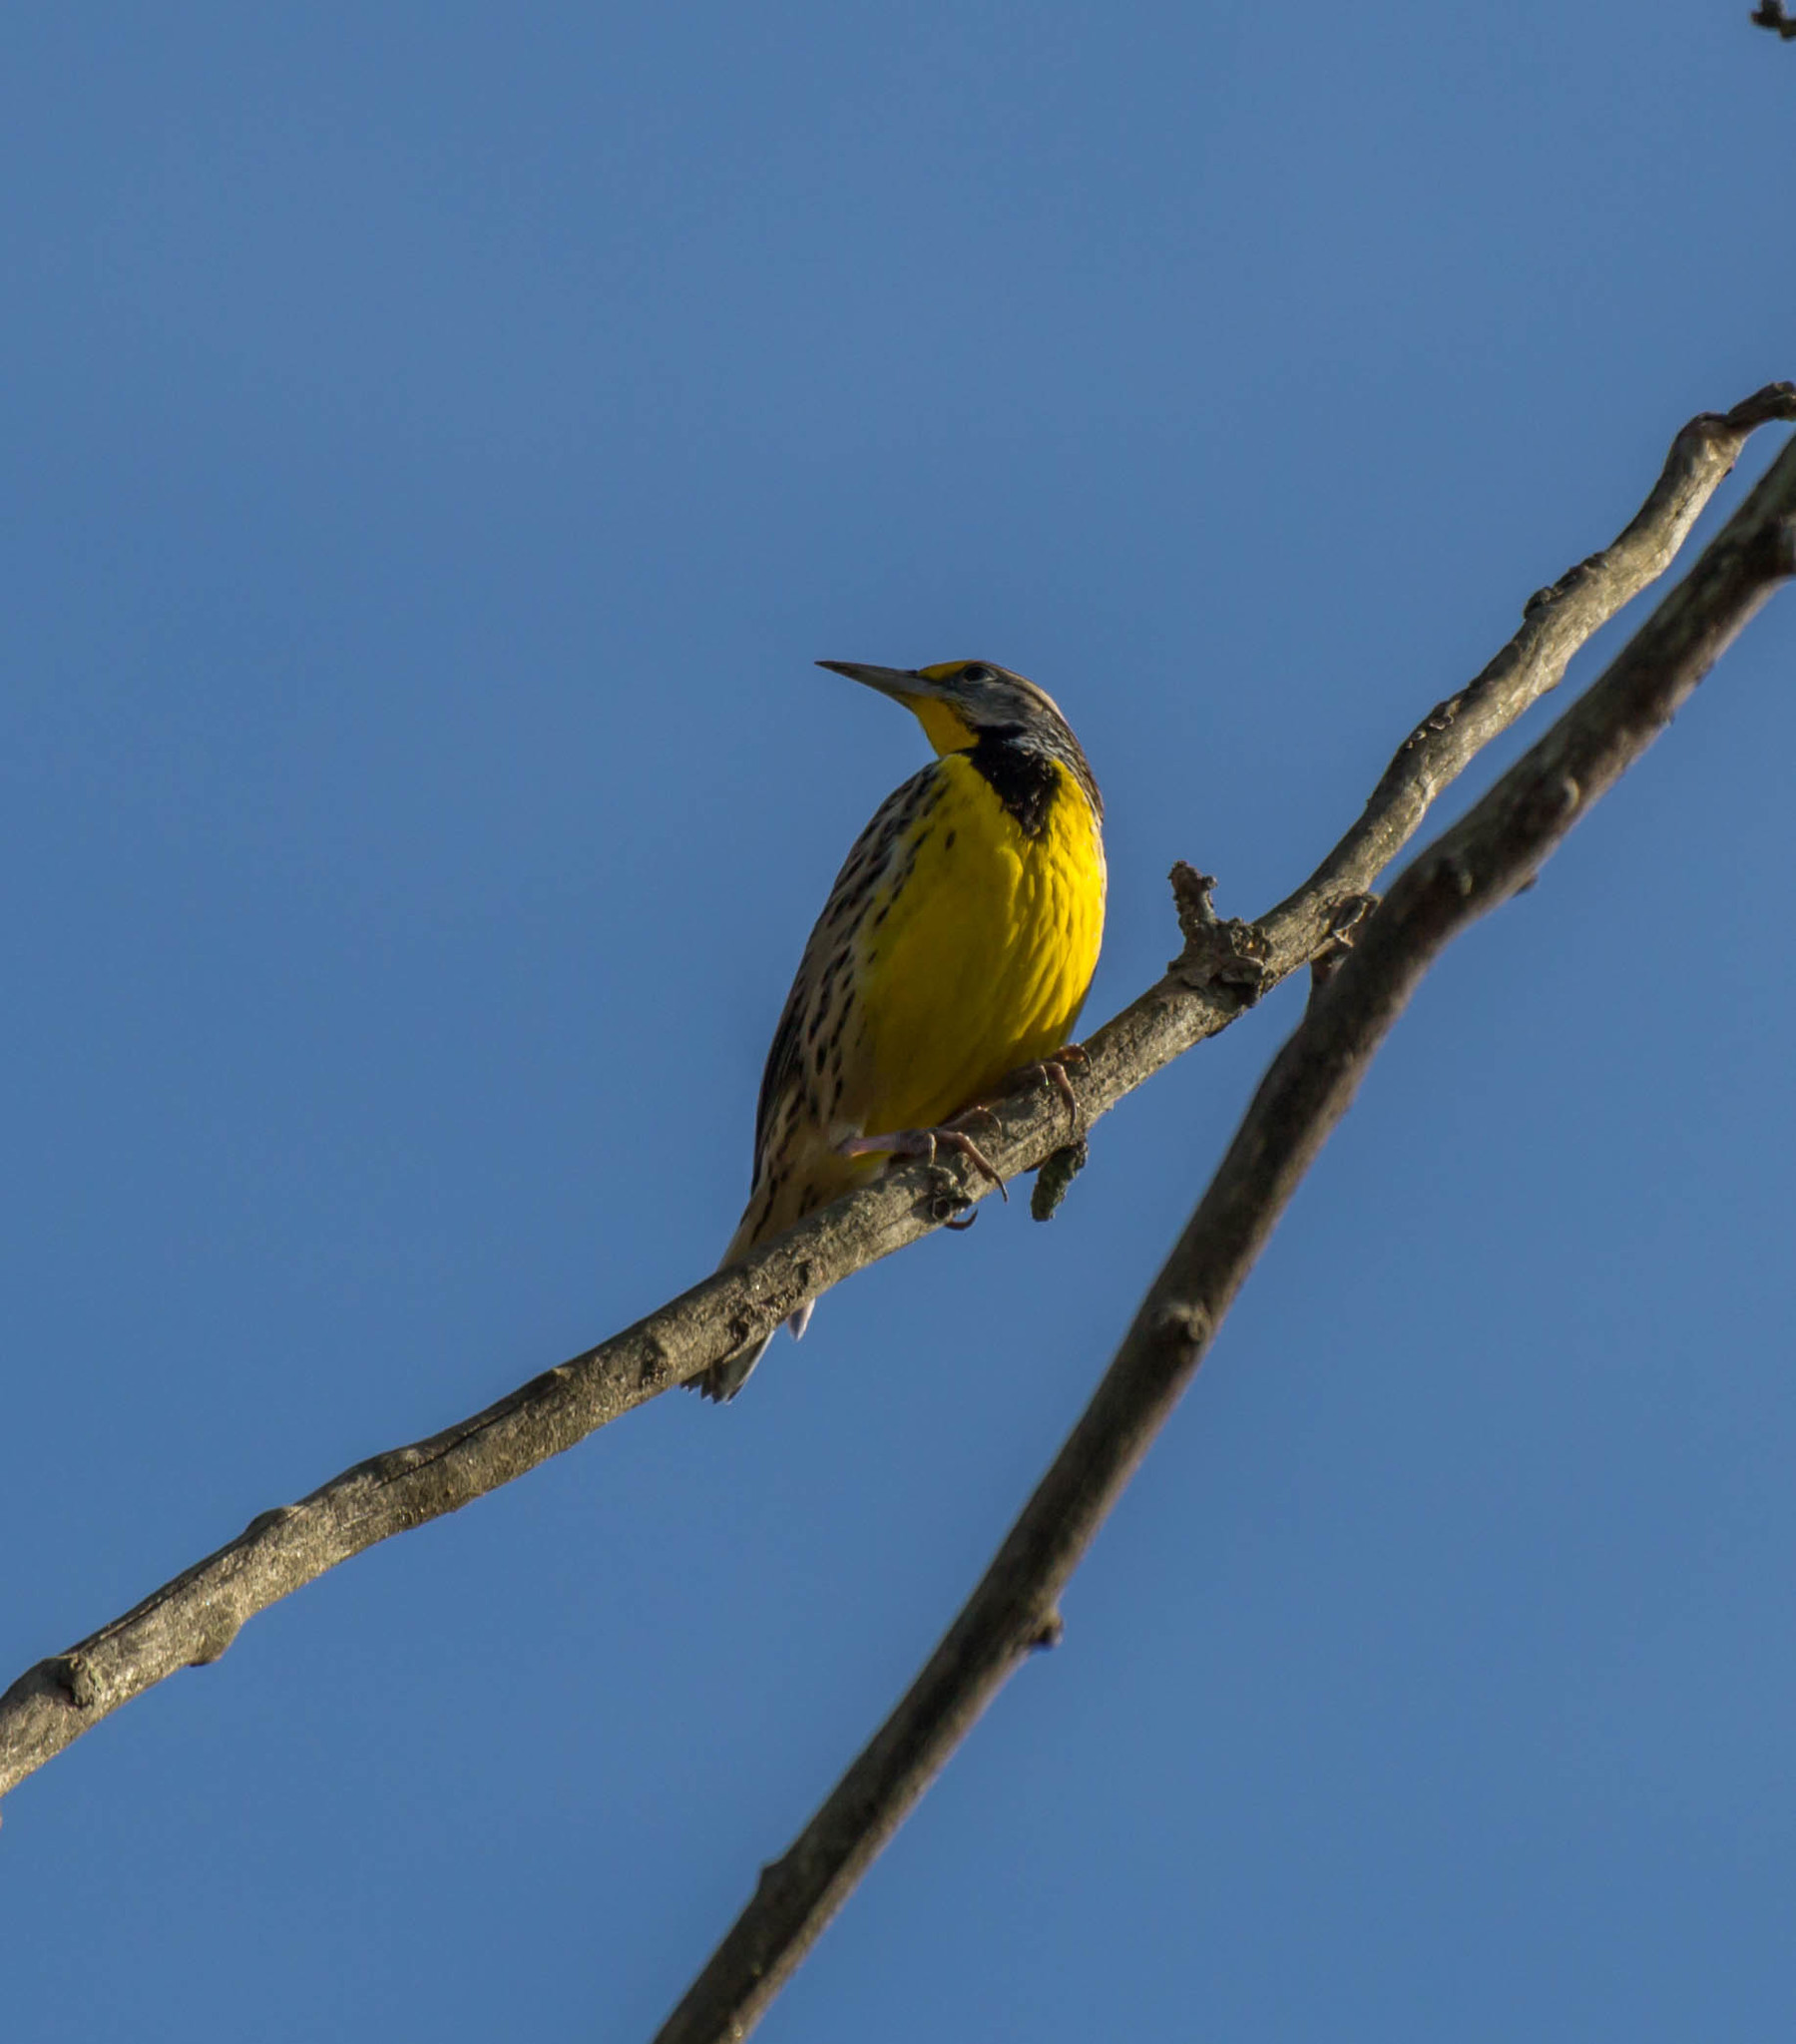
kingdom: Animalia
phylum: Chordata
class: Aves
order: Passeriformes
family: Icteridae
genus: Sturnella
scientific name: Sturnella magna
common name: Eastern meadowlark
